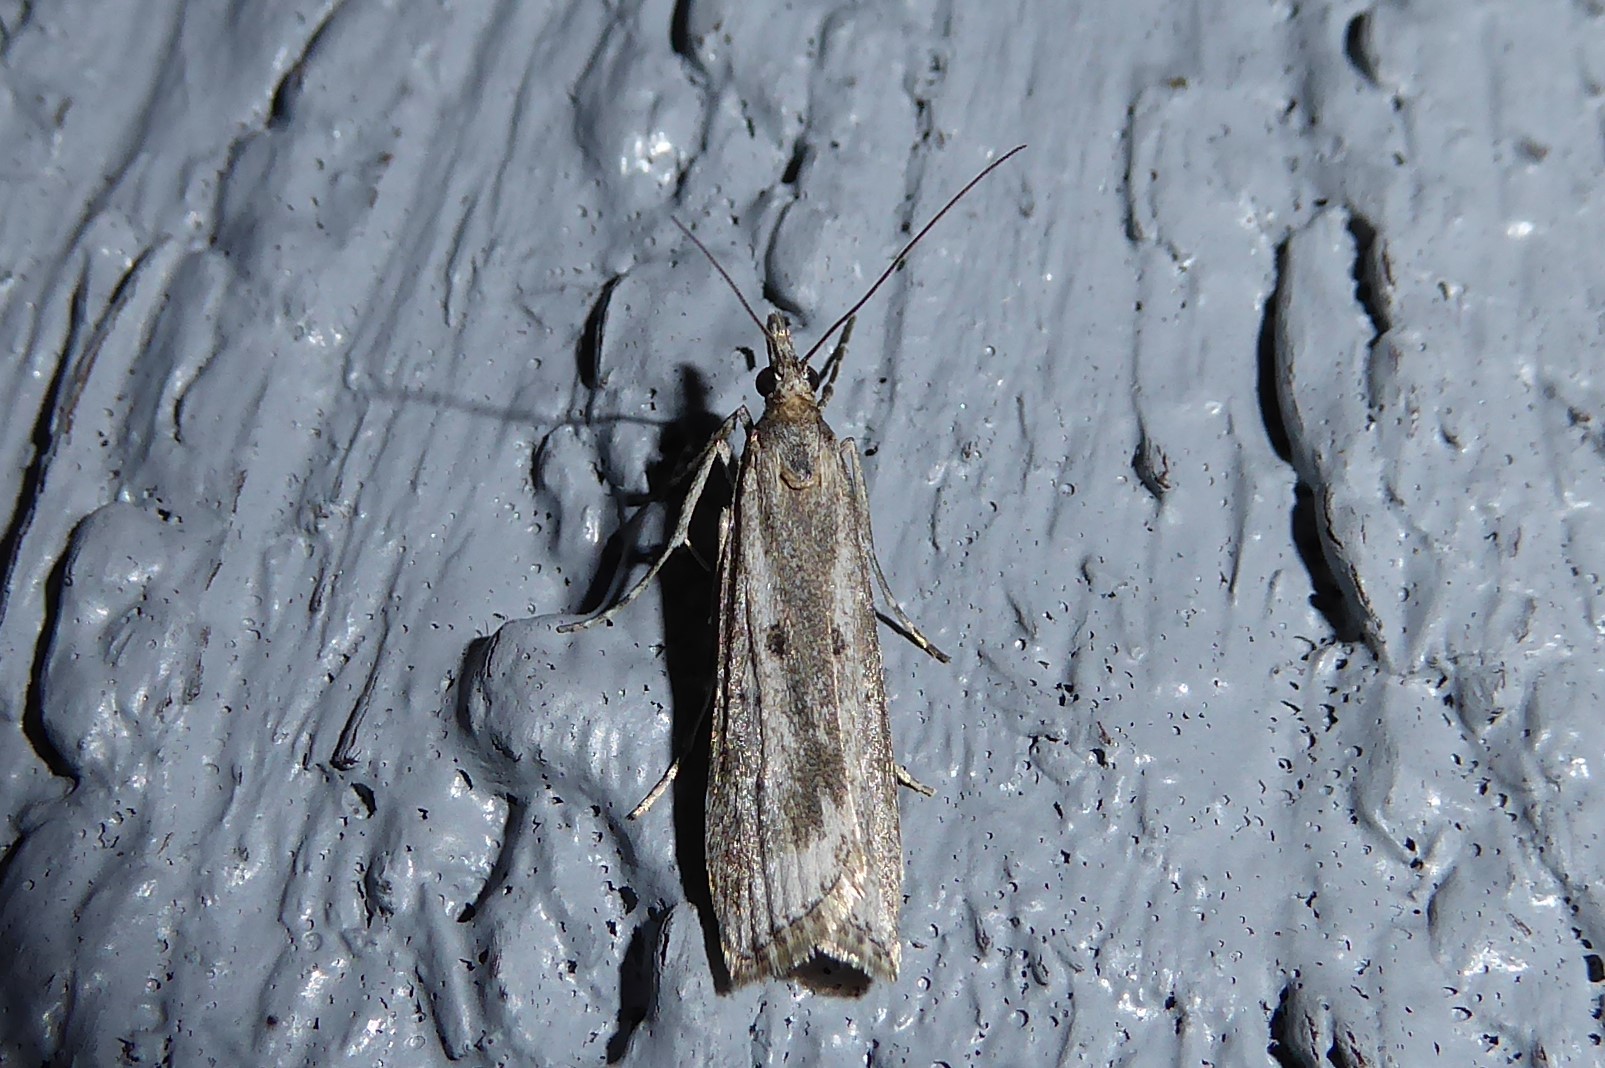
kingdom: Animalia
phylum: Arthropoda
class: Insecta
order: Lepidoptera
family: Crambidae
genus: Eudonia
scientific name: Eudonia leptalea
